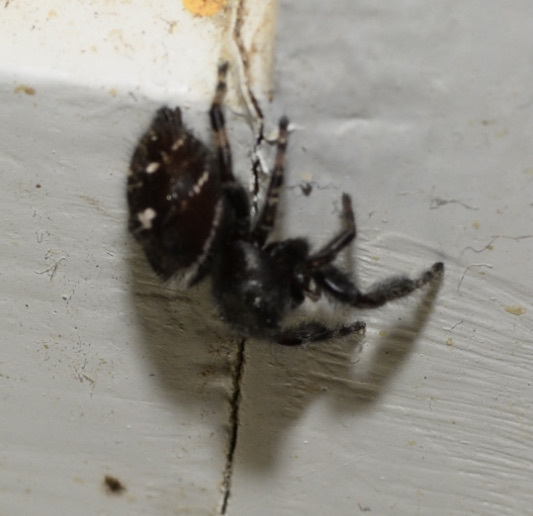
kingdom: Animalia
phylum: Arthropoda
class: Arachnida
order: Araneae
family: Salticidae
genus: Phidippus
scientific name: Phidippus audax
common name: Bold jumper
